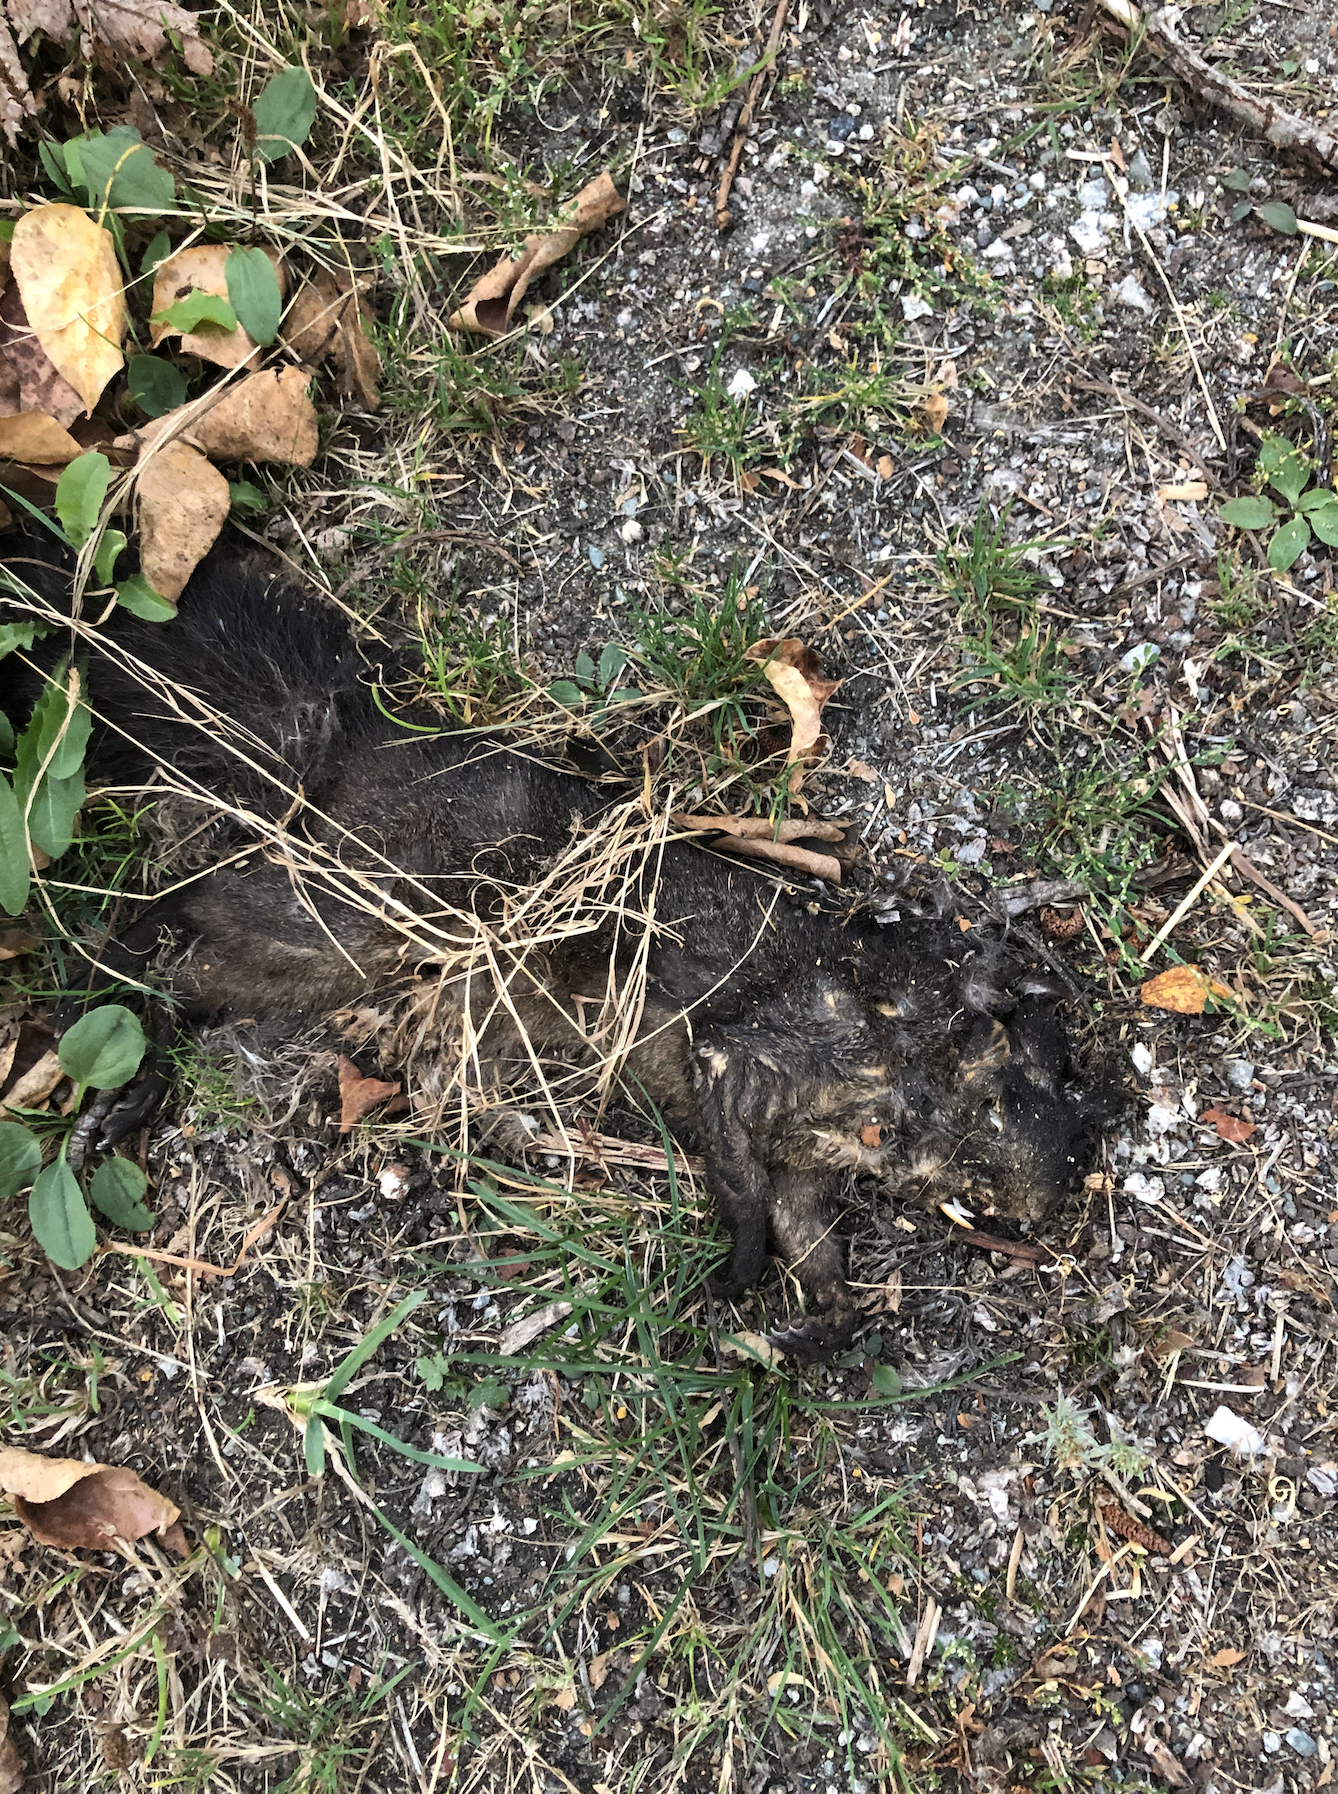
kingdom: Animalia
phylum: Chordata
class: Mammalia
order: Rodentia
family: Sciuridae
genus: Sciurus
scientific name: Sciurus carolinensis
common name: Eastern gray squirrel
